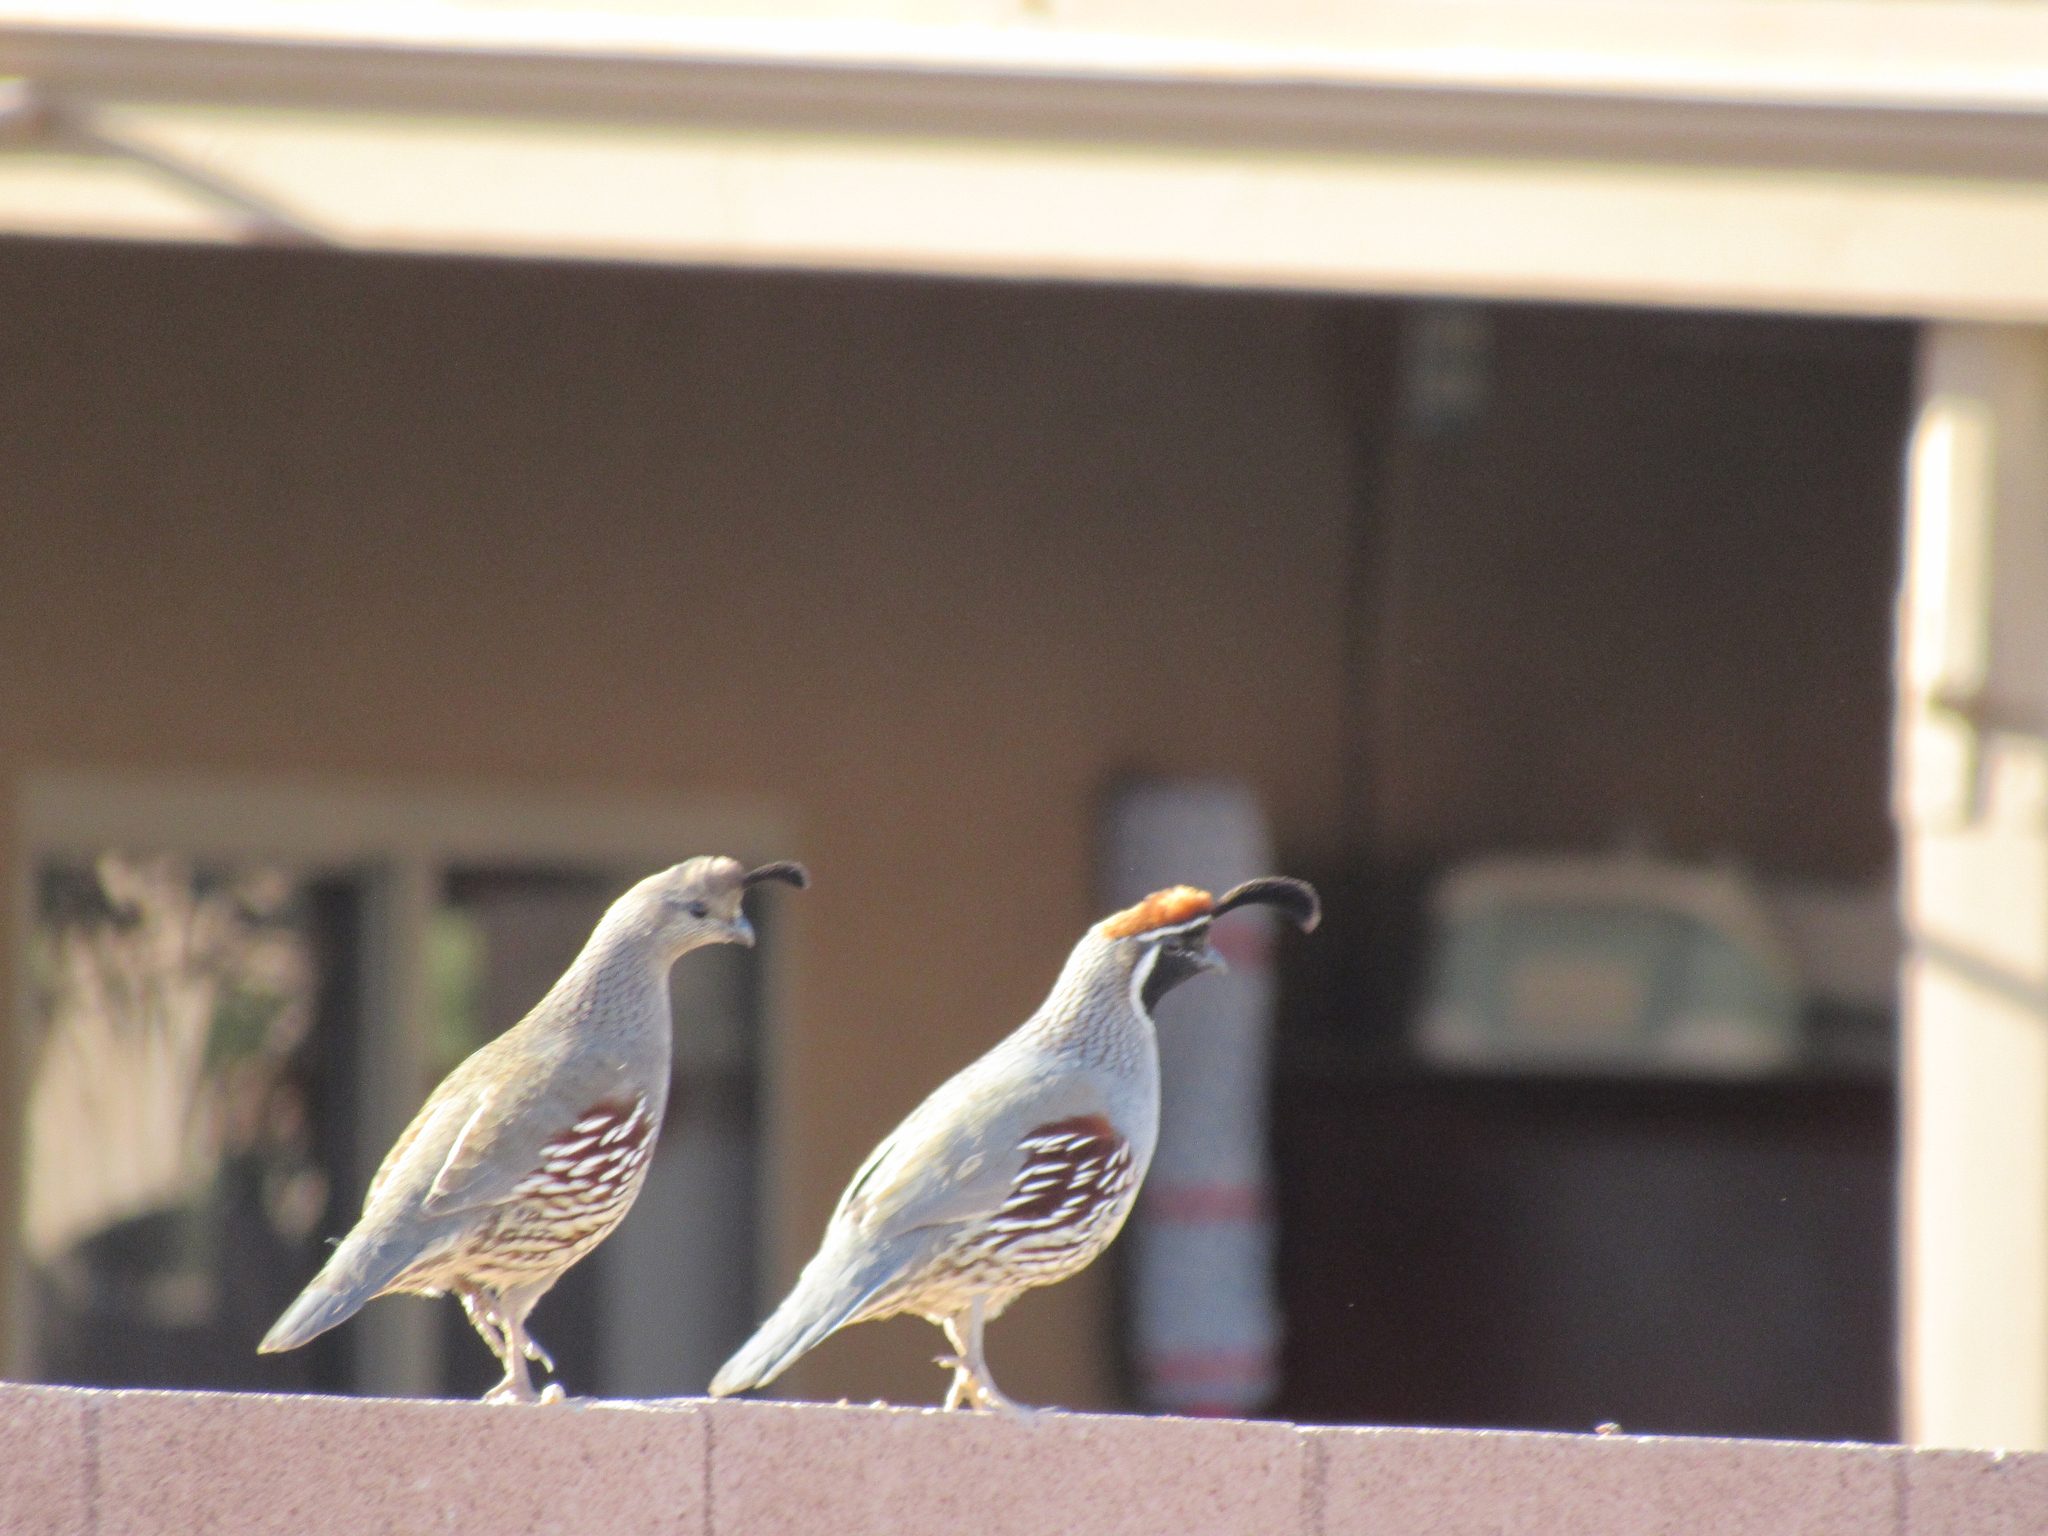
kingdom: Animalia
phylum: Chordata
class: Aves
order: Galliformes
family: Odontophoridae
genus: Callipepla
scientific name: Callipepla gambelii
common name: Gambel's quail
